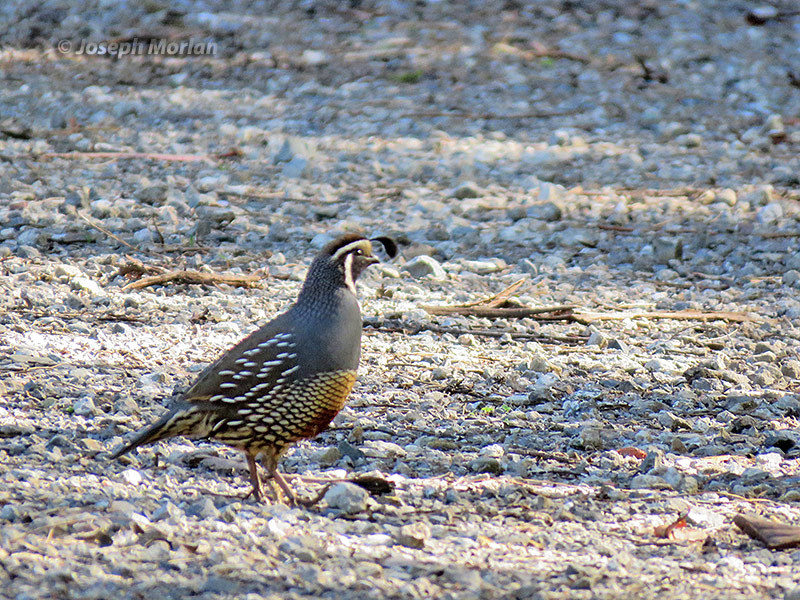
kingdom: Animalia
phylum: Chordata
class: Aves
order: Galliformes
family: Odontophoridae
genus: Callipepla
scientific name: Callipepla californica
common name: California quail
